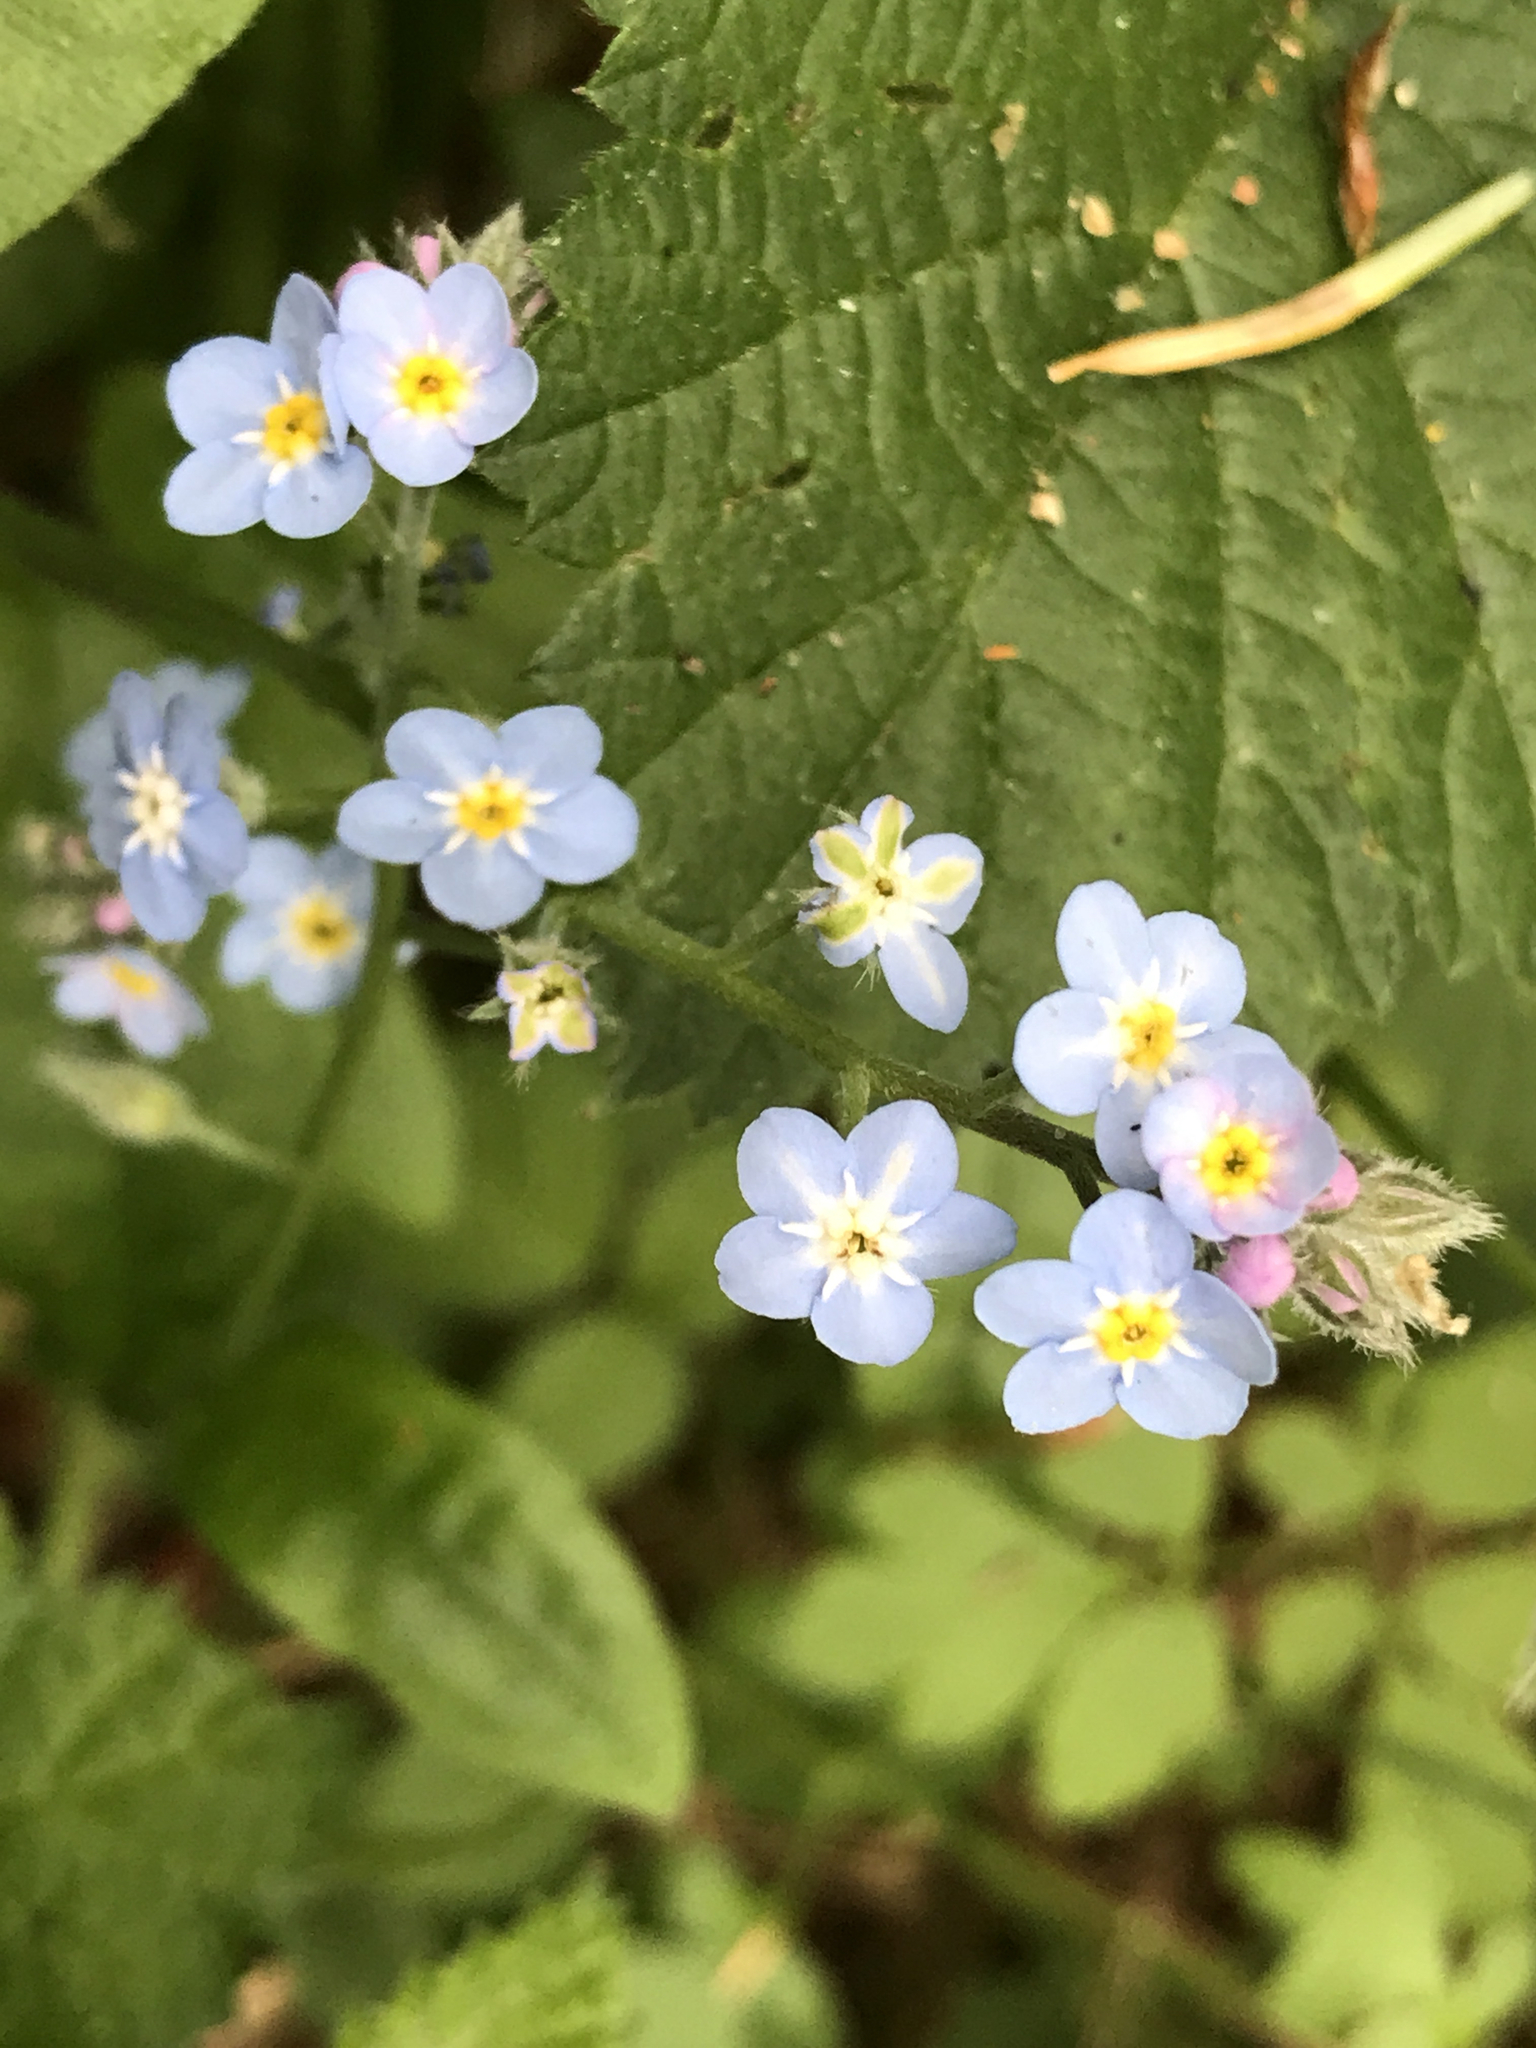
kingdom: Plantae
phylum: Tracheophyta
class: Magnoliopsida
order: Boraginales
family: Boraginaceae
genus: Myosotis
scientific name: Myosotis latifolia
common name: Broadleaf forget-me-not
